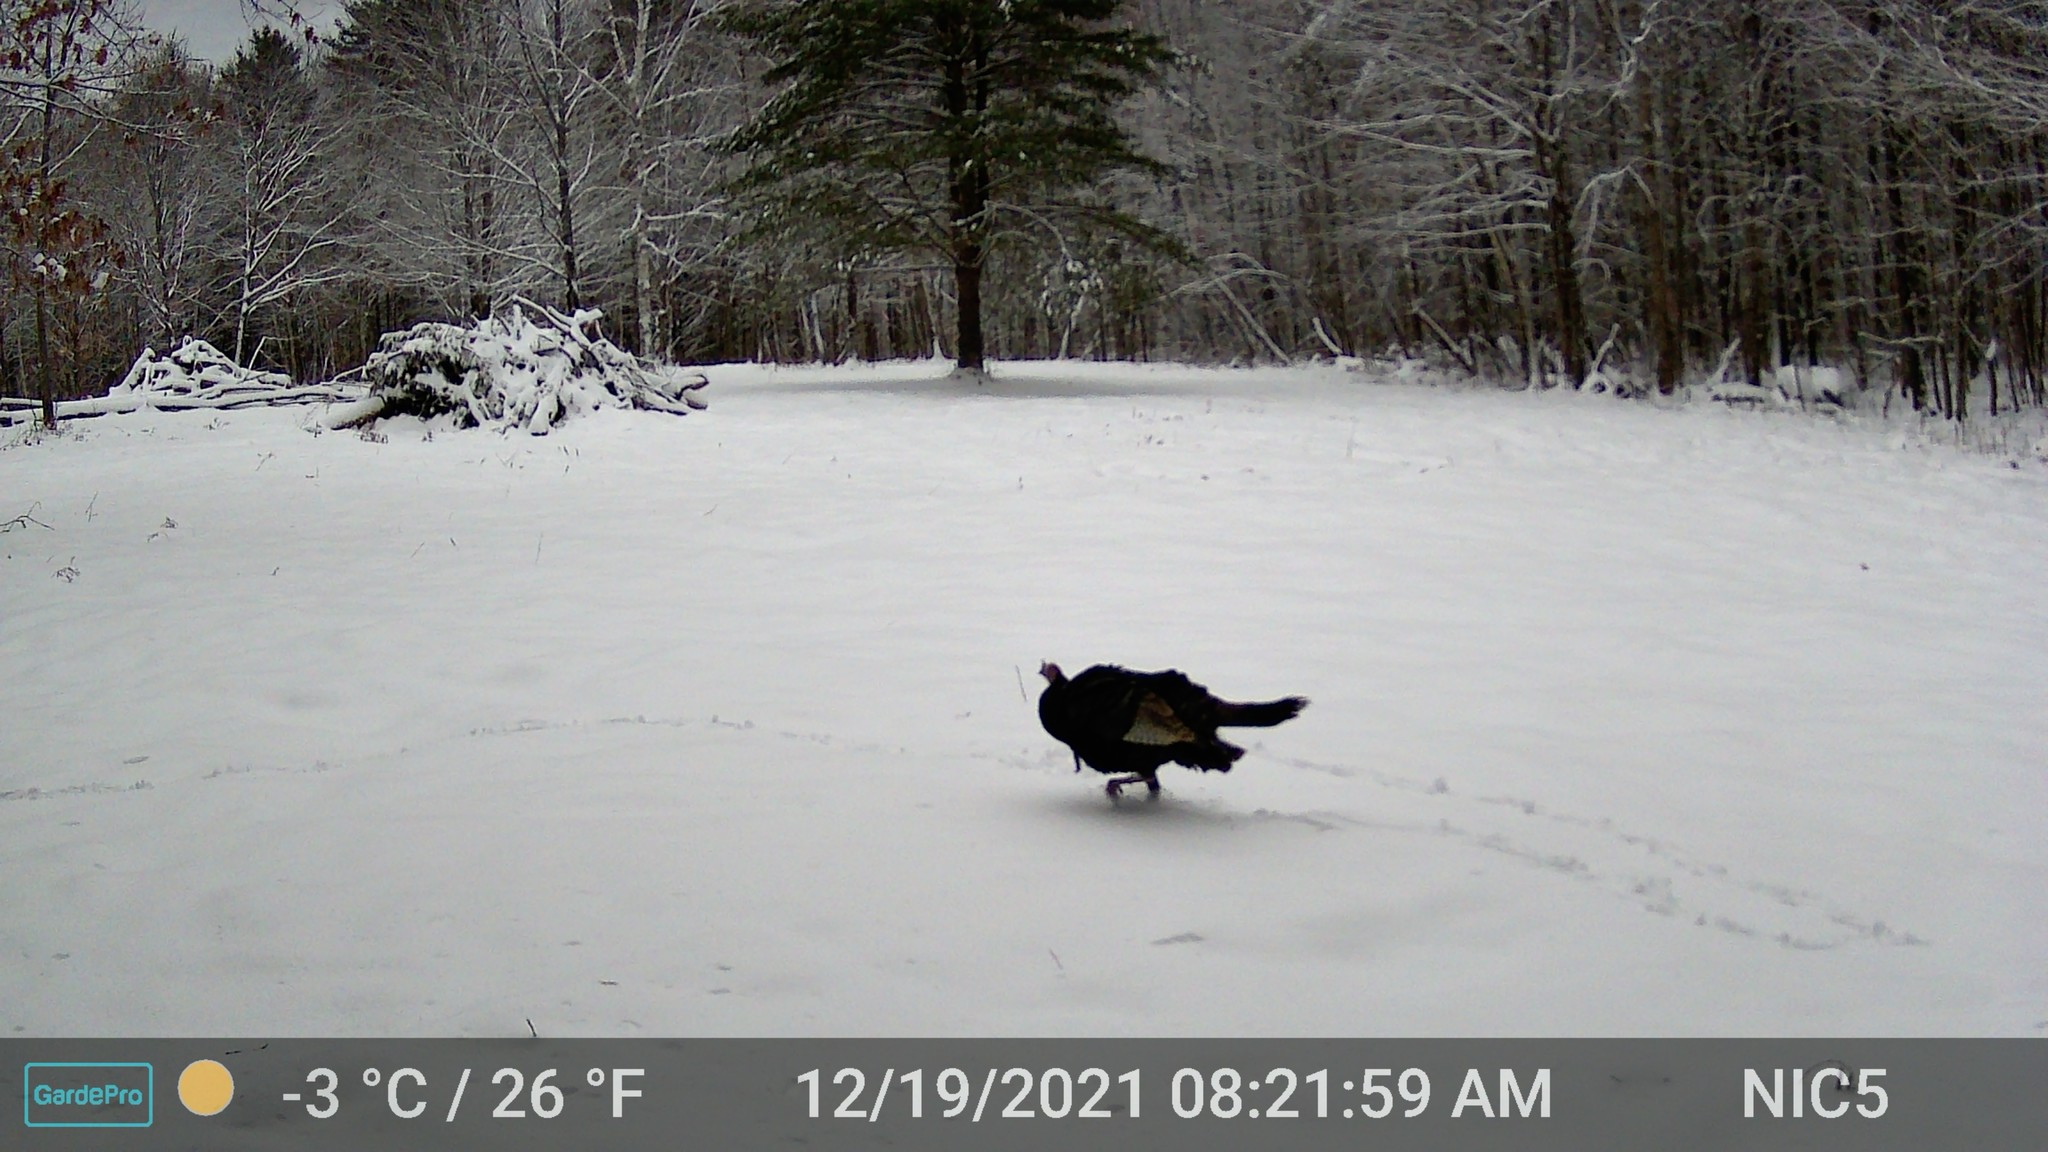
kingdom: Animalia
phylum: Chordata
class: Aves
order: Galliformes
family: Phasianidae
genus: Meleagris
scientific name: Meleagris gallopavo
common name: Wild turkey
